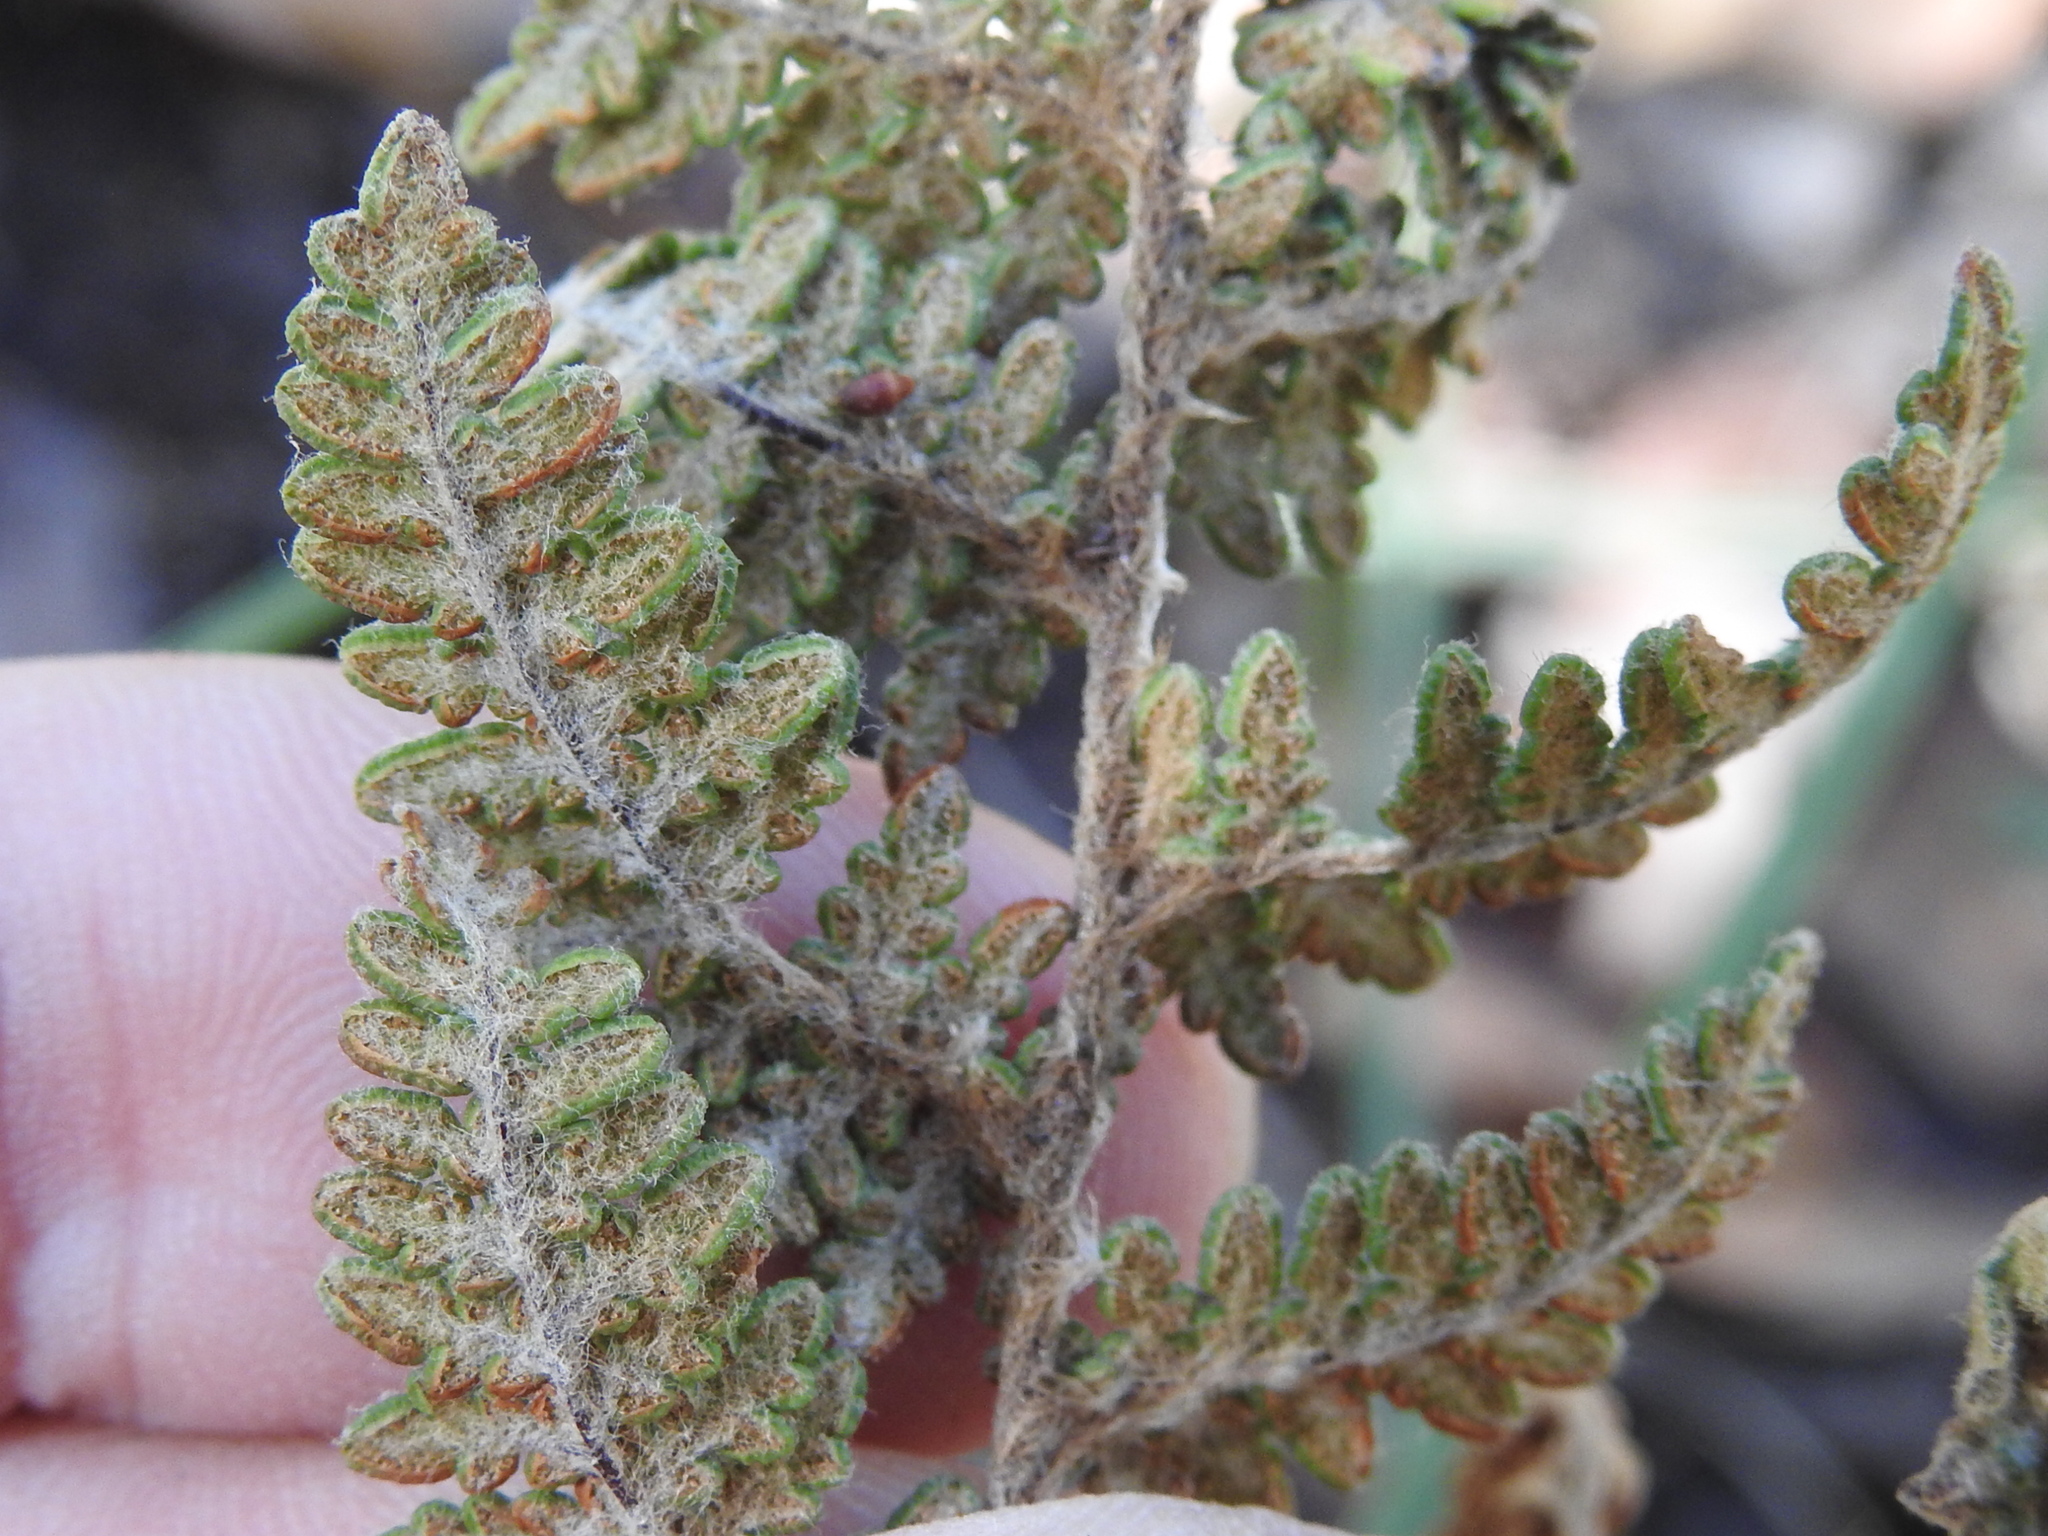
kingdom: Plantae
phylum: Tracheophyta
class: Polypodiopsida
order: Polypodiales
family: Pteridaceae
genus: Myriopteris
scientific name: Myriopteris tomentosa
